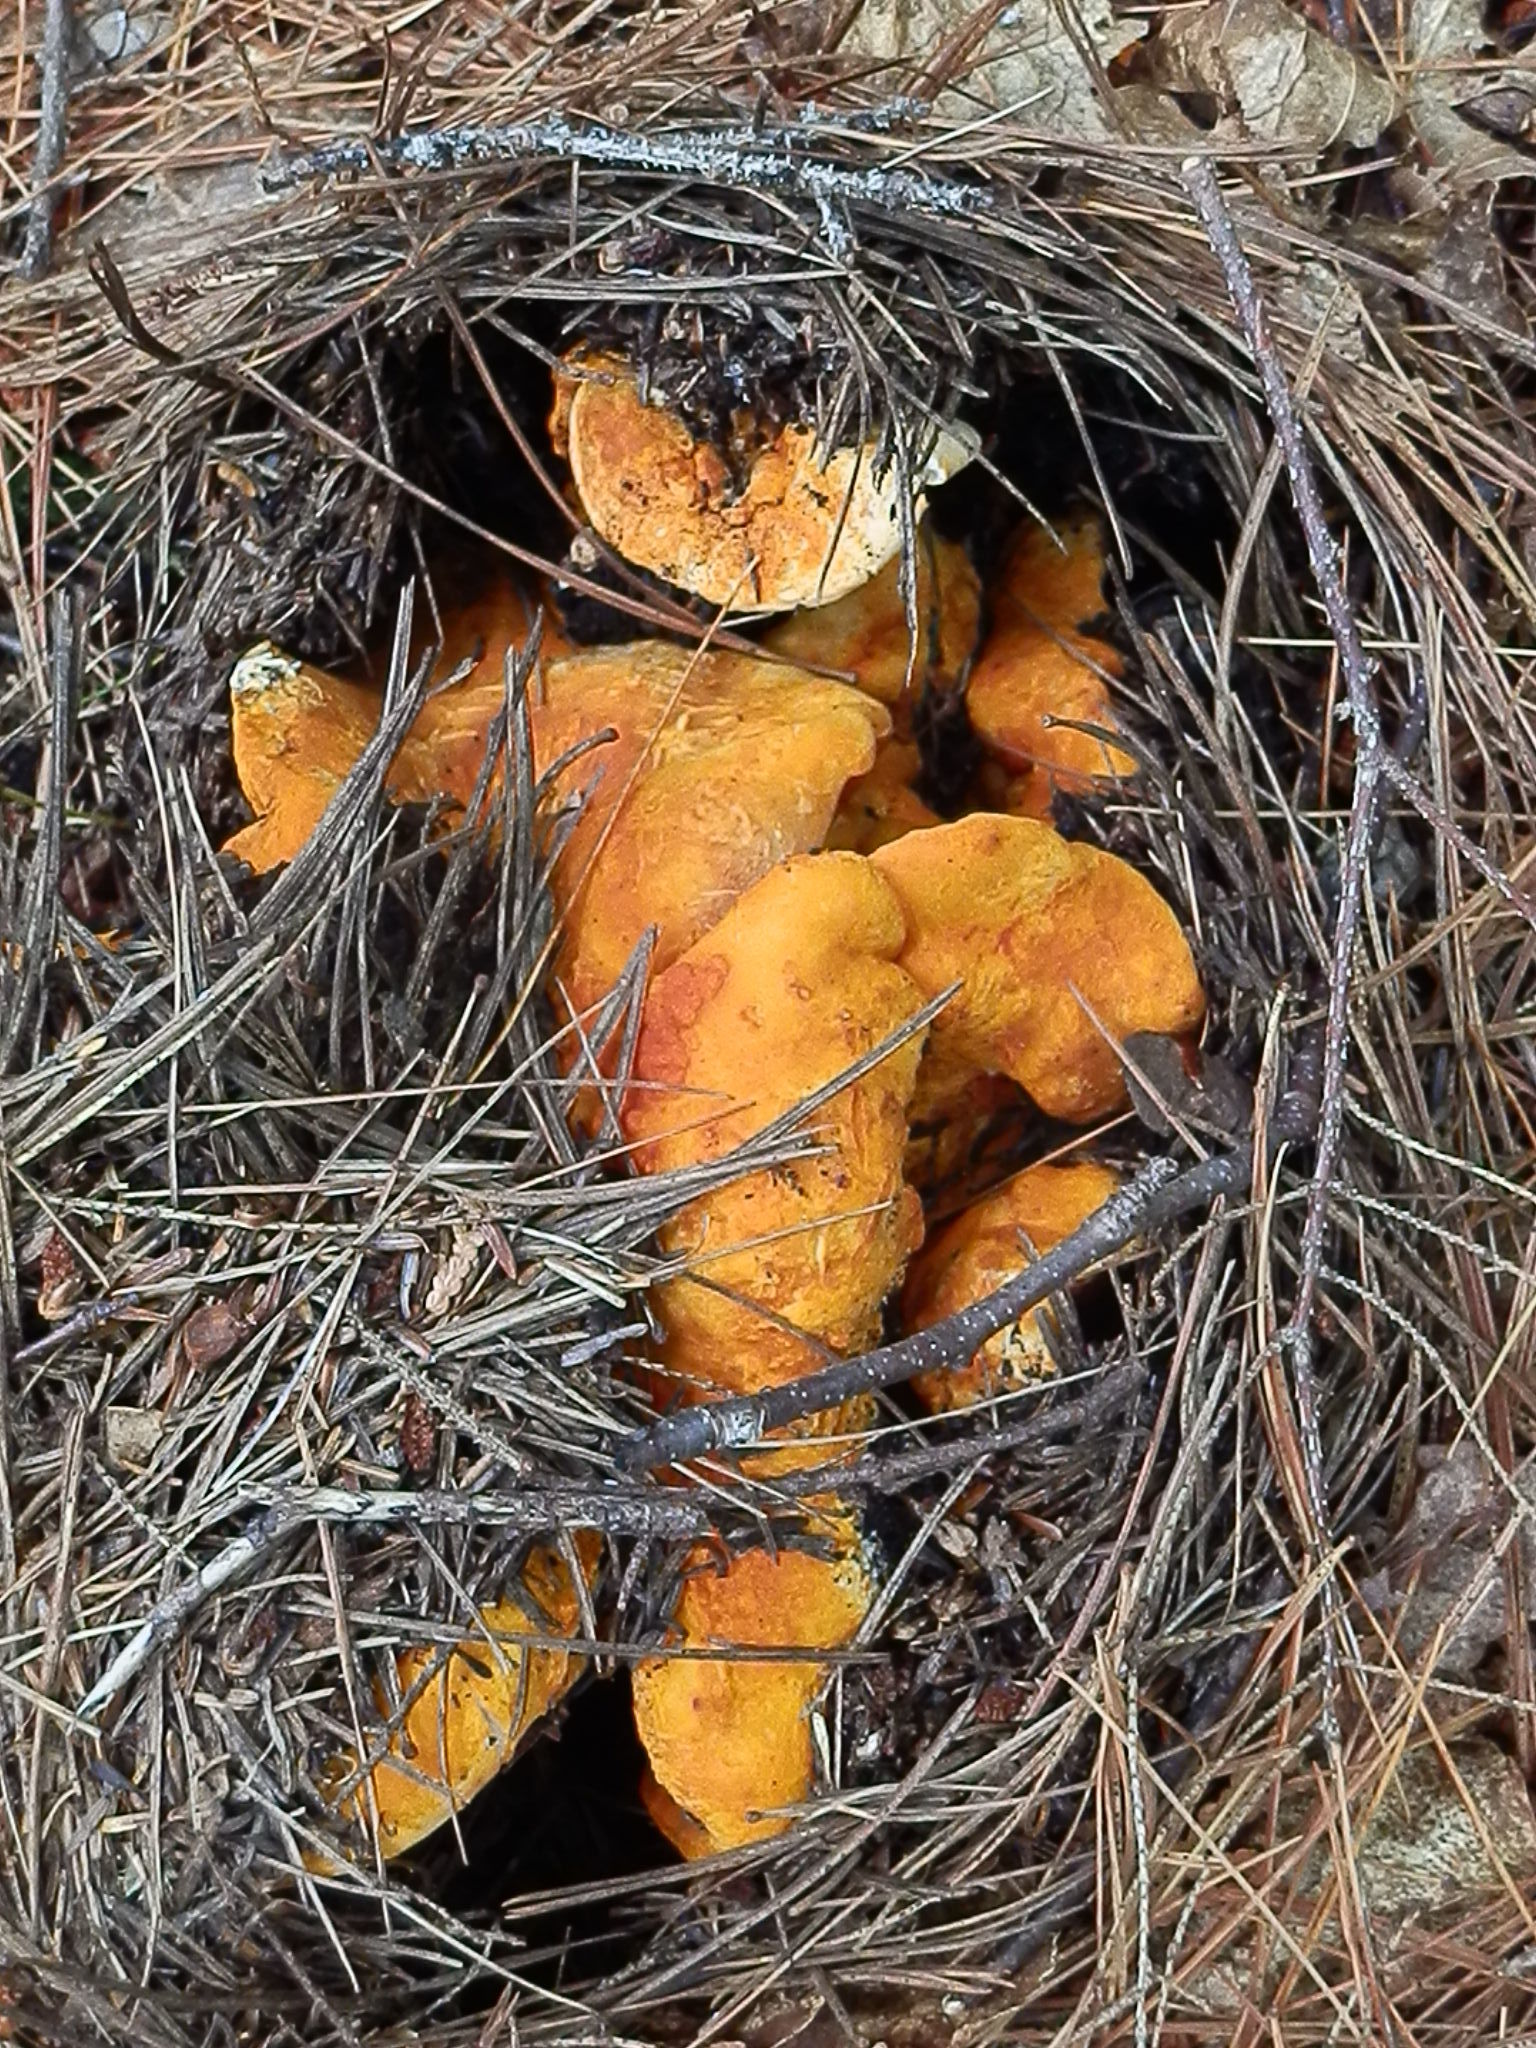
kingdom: Fungi
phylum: Ascomycota
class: Sordariomycetes
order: Hypocreales
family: Hypocreaceae
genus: Hypomyces
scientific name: Hypomyces lactifluorum
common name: Lobster mushroom
